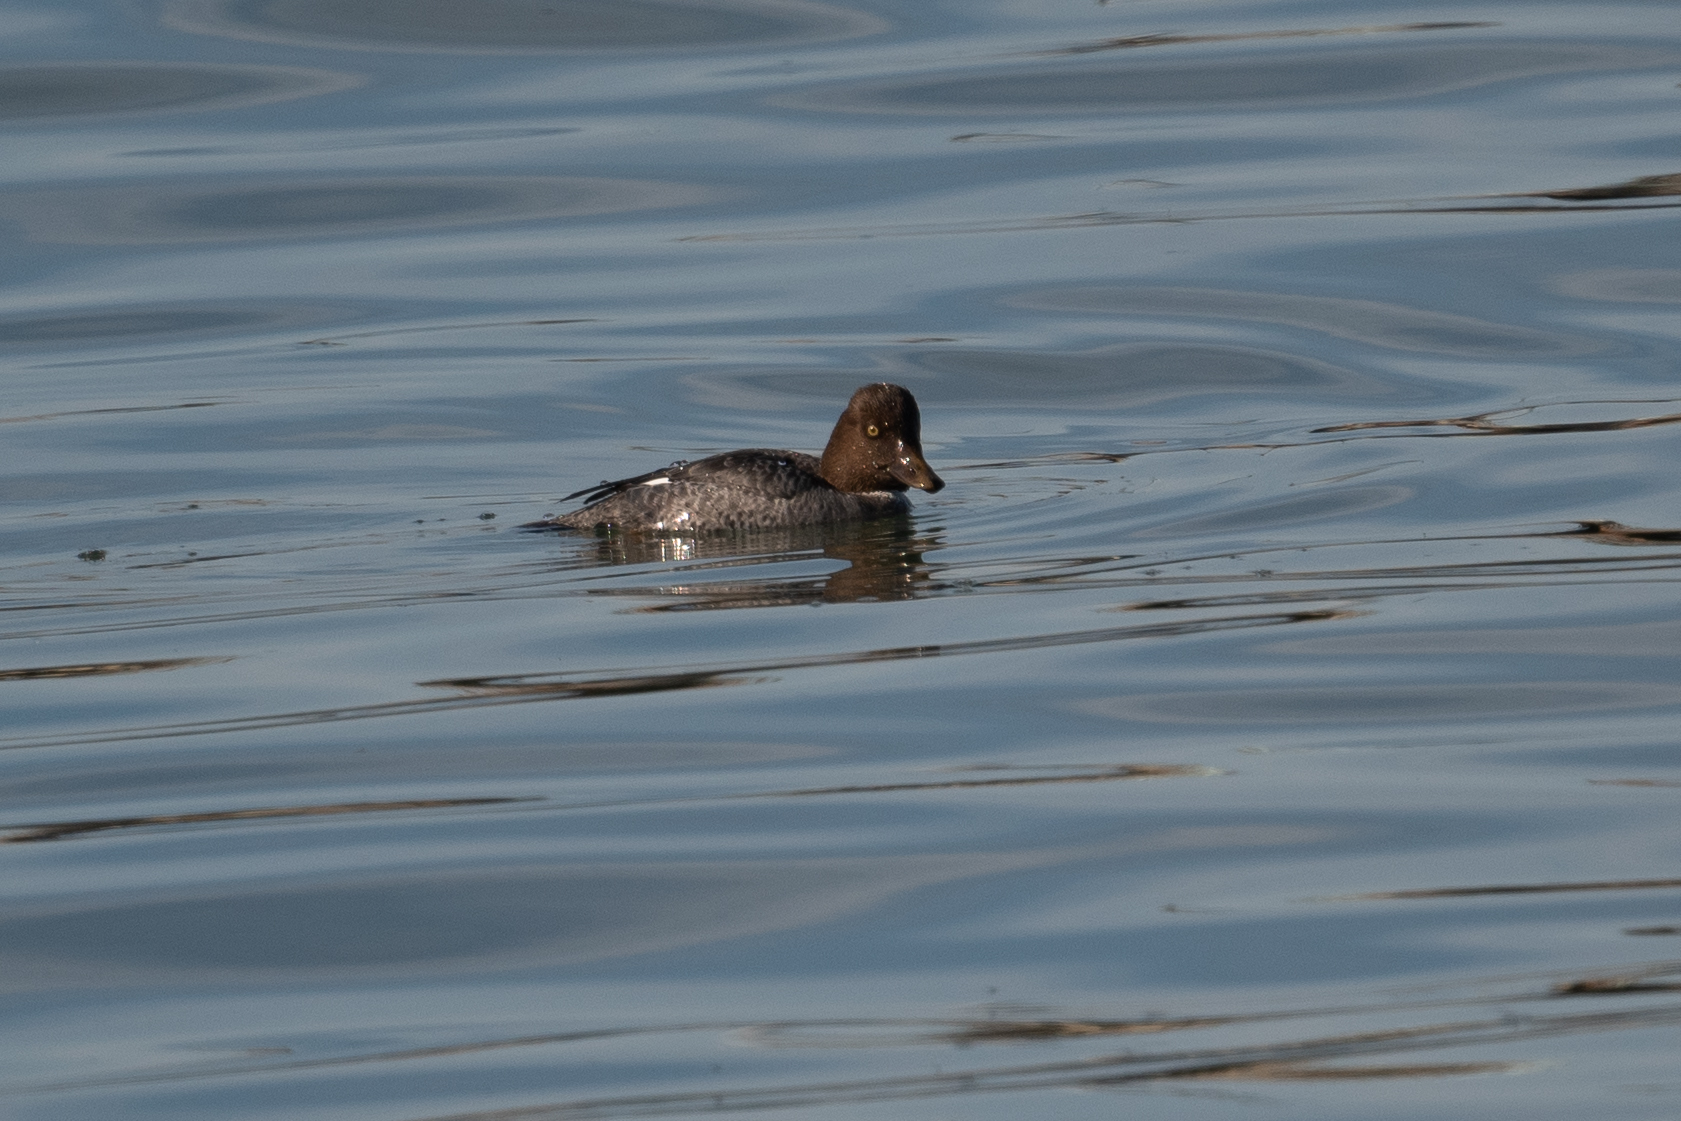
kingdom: Animalia
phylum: Chordata
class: Aves
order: Anseriformes
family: Anatidae
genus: Bucephala
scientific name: Bucephala clangula
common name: Common goldeneye
